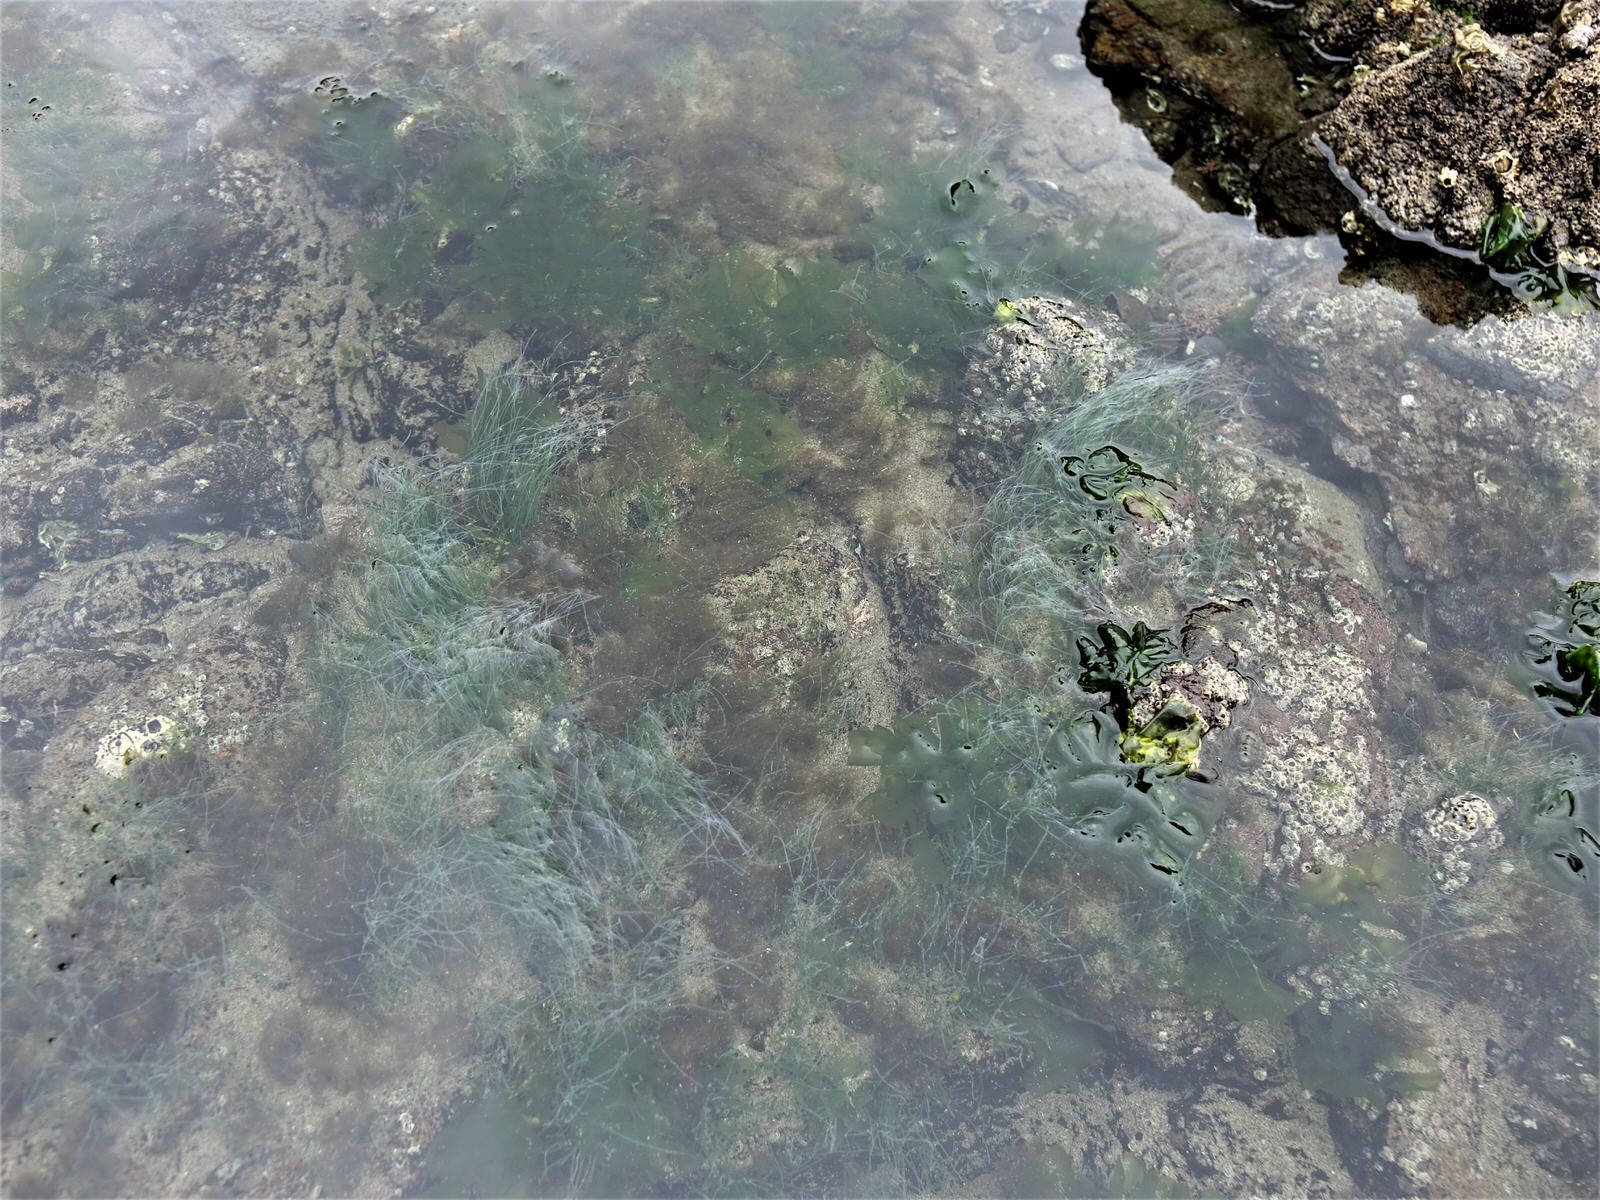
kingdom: Plantae
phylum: Chlorophyta
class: Ulvophyceae
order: Cladophorales
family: Cladophoraceae
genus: Chaetomorpha
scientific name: Chaetomorpha coliformis
